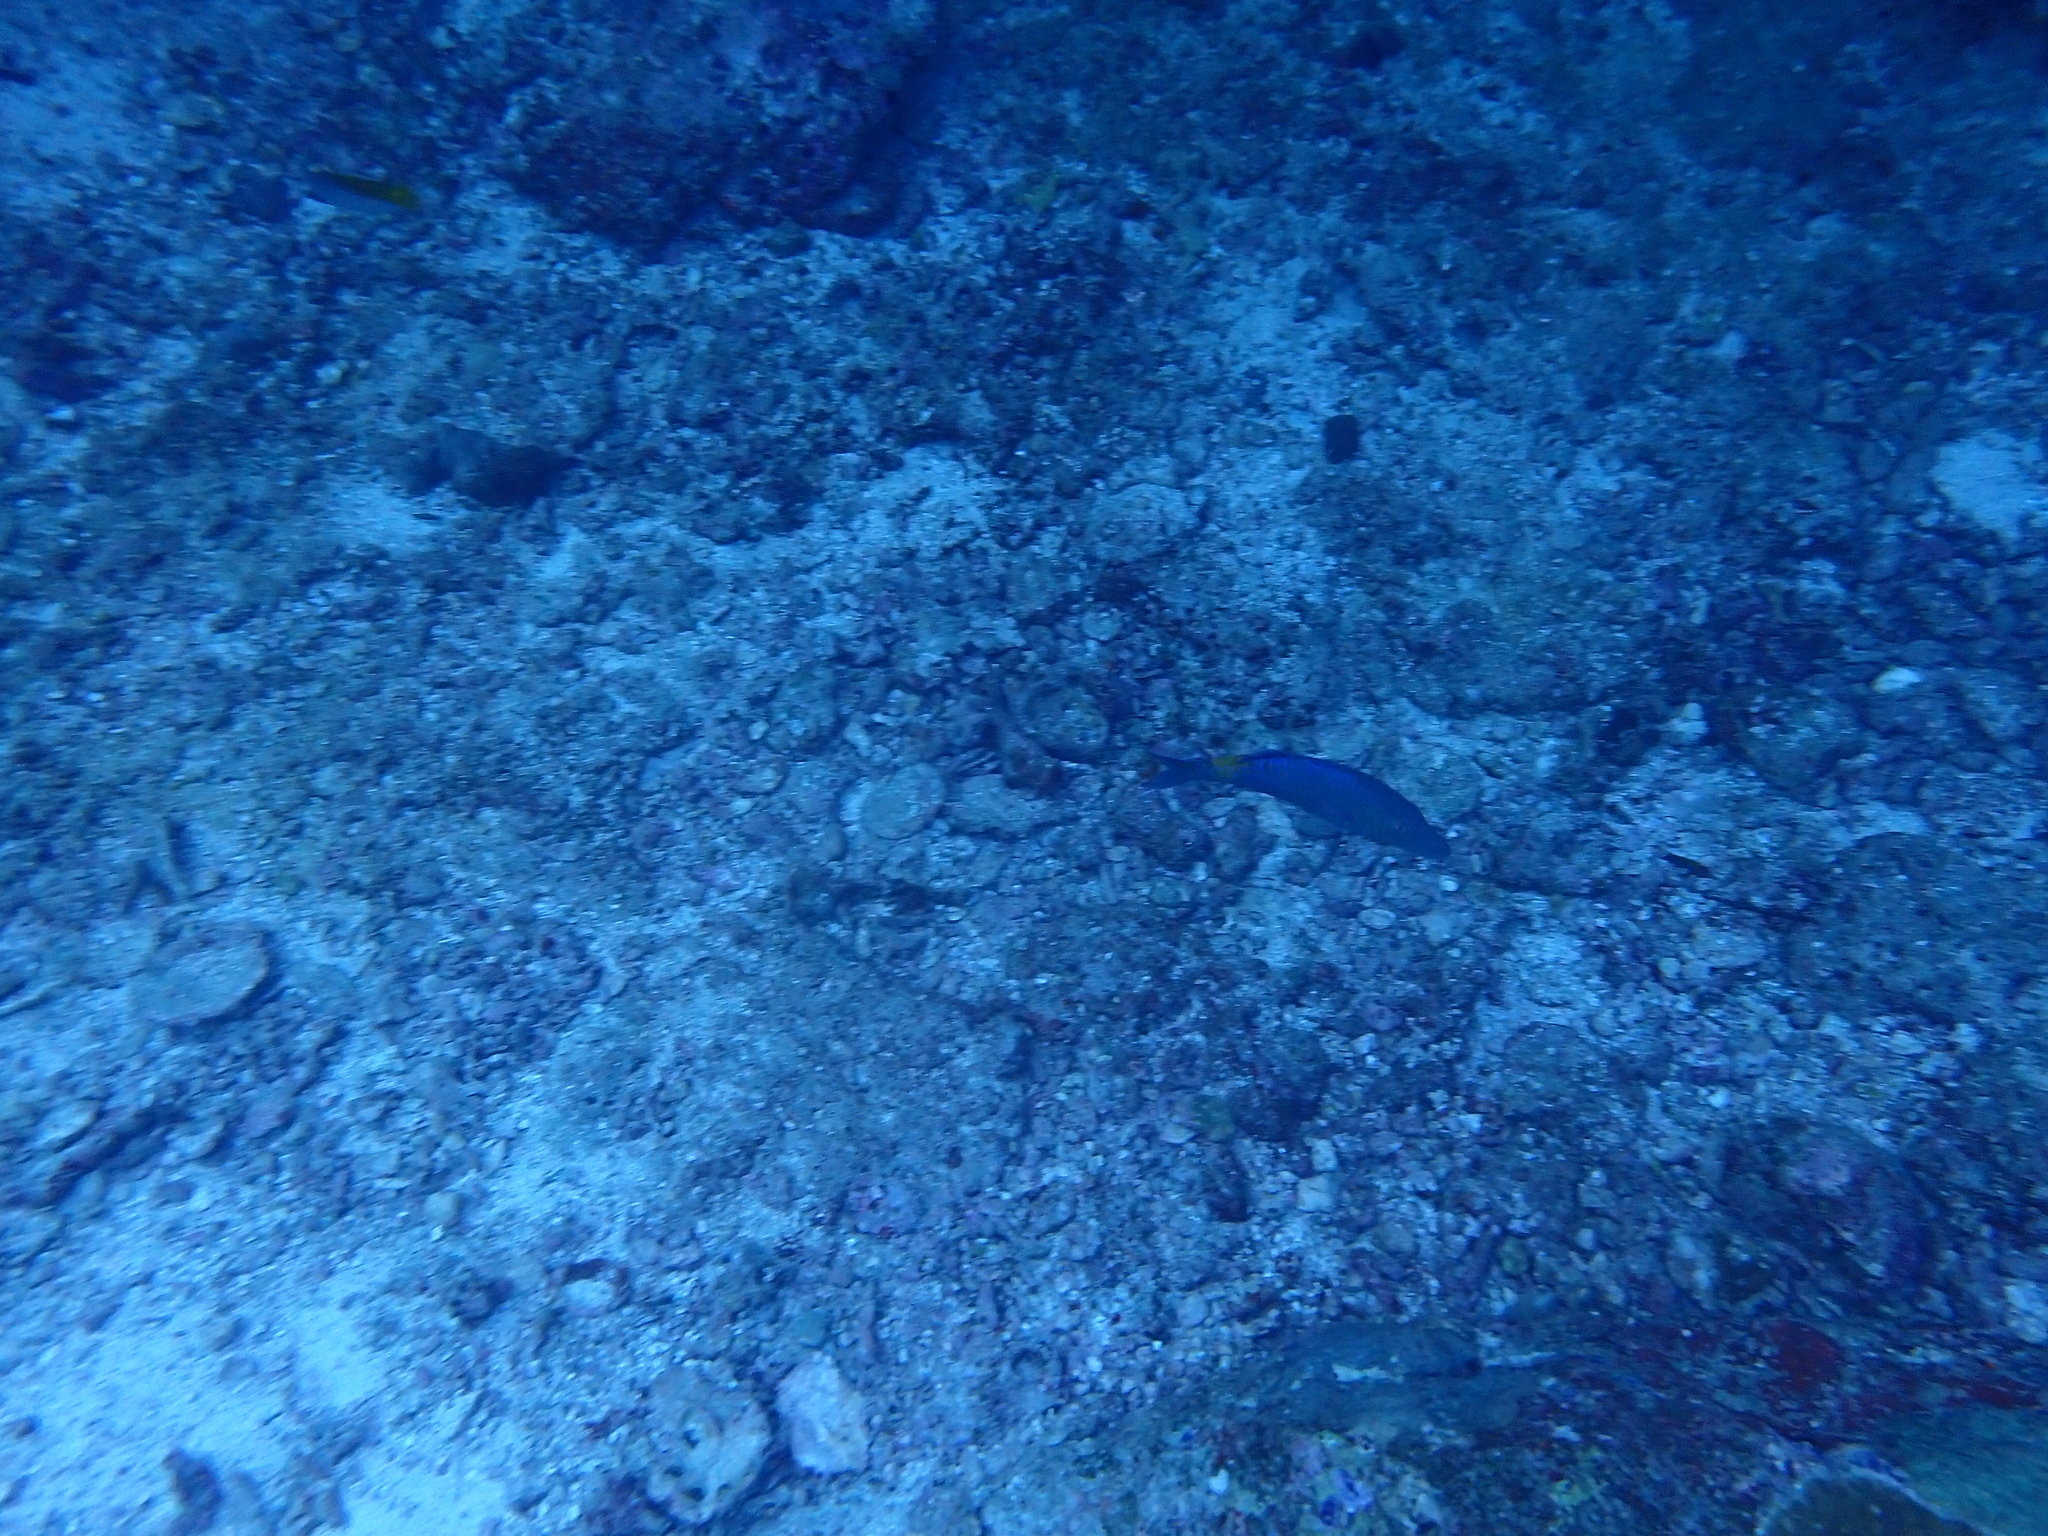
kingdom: Animalia
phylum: Chordata
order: Perciformes
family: Mullidae
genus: Parupeneus
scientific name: Parupeneus cyclostomus
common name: Goldsaddle goatfish
